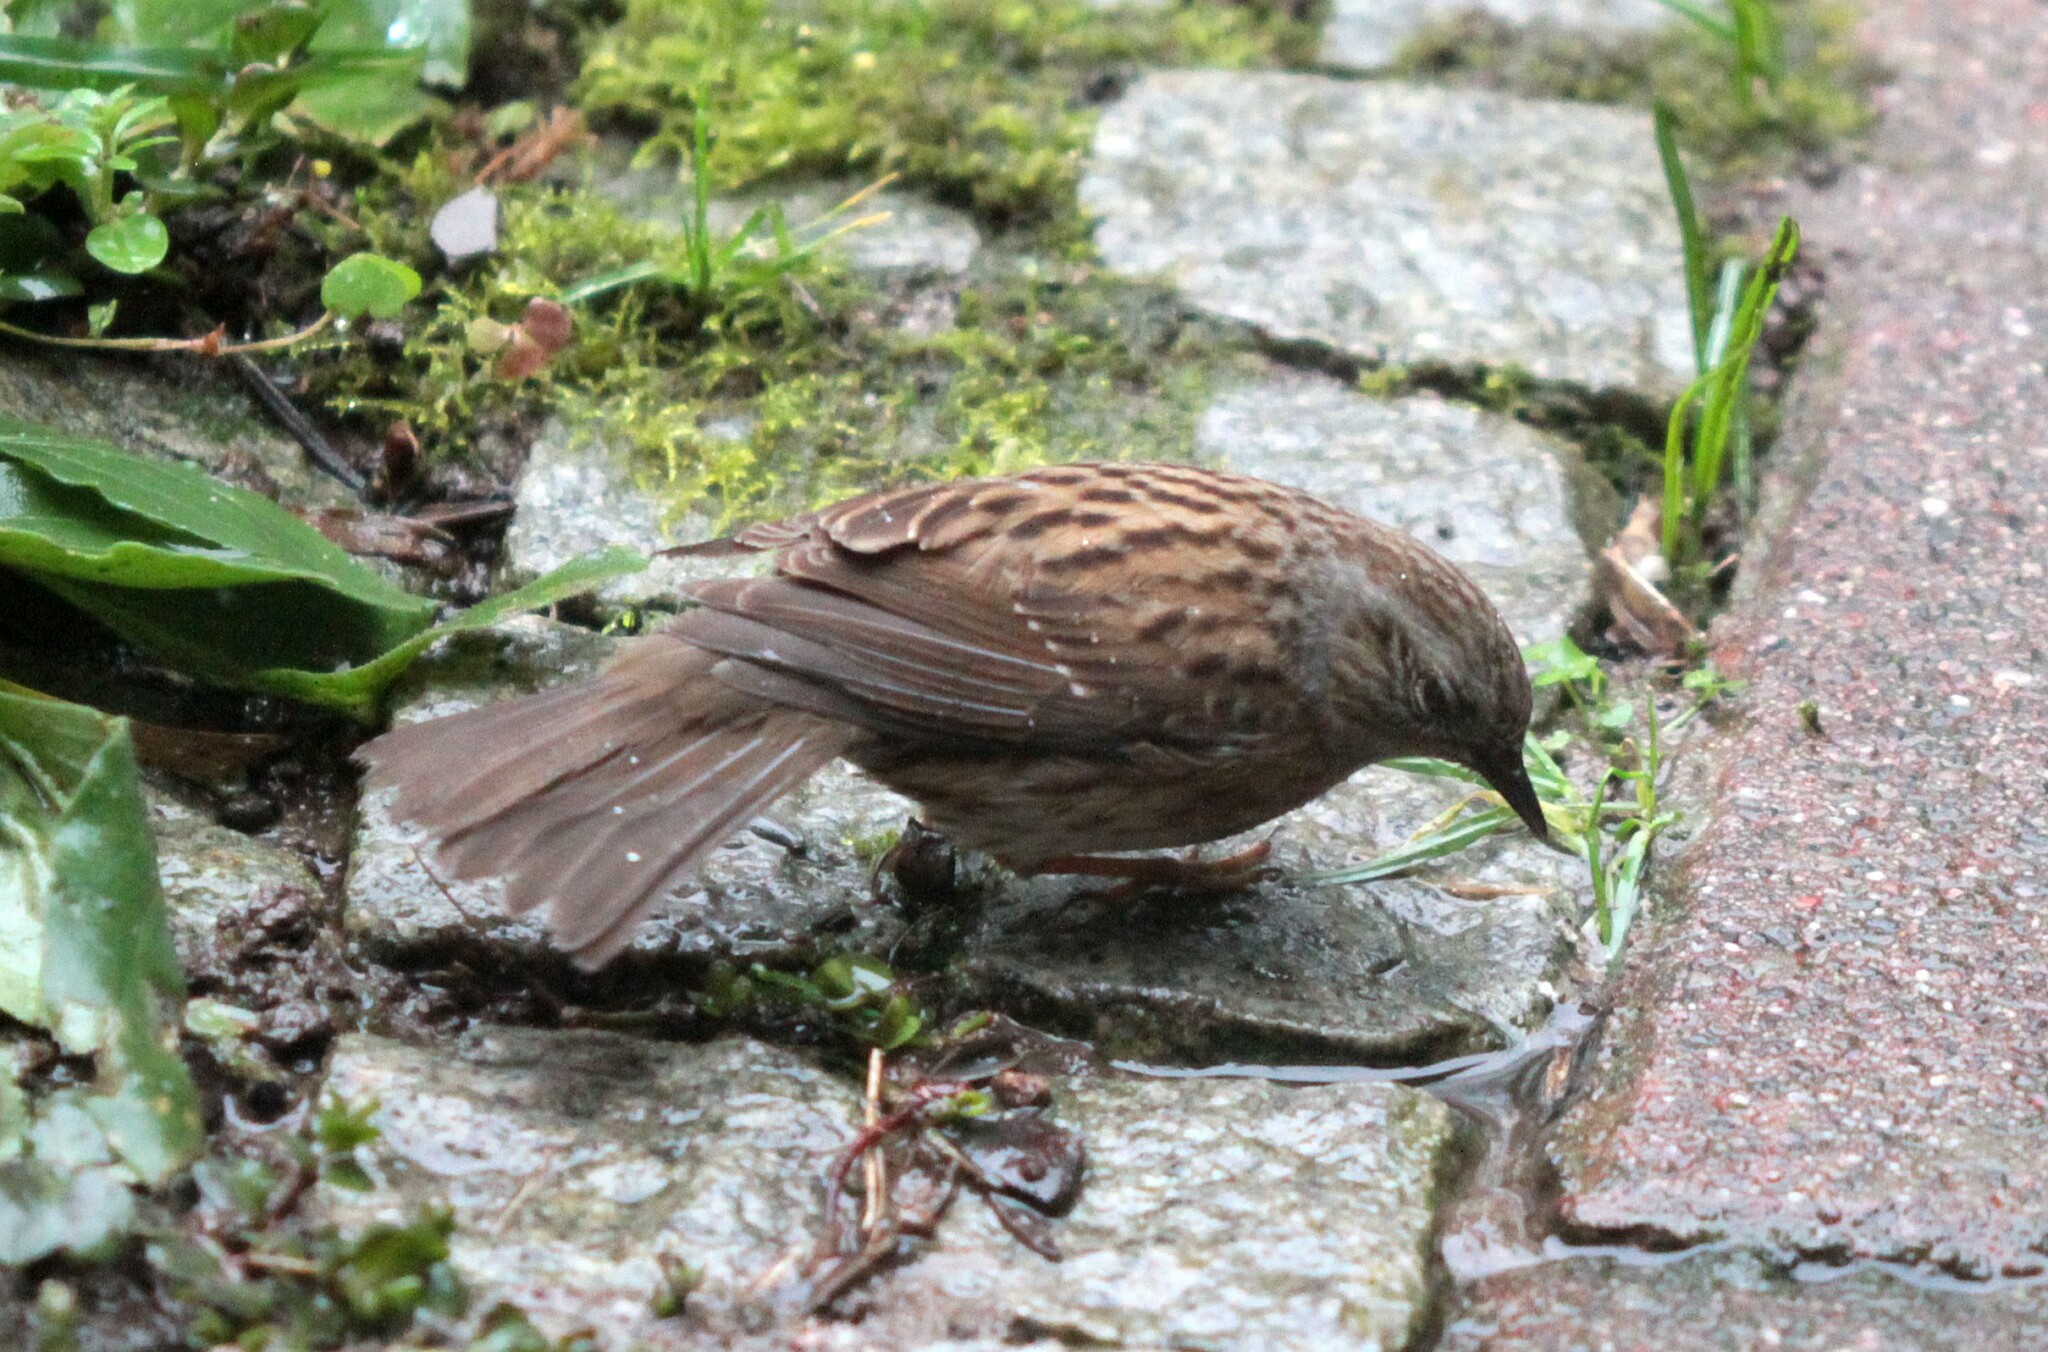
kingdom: Animalia
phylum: Chordata
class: Aves
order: Passeriformes
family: Prunellidae
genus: Prunella
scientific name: Prunella modularis
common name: Dunnock
